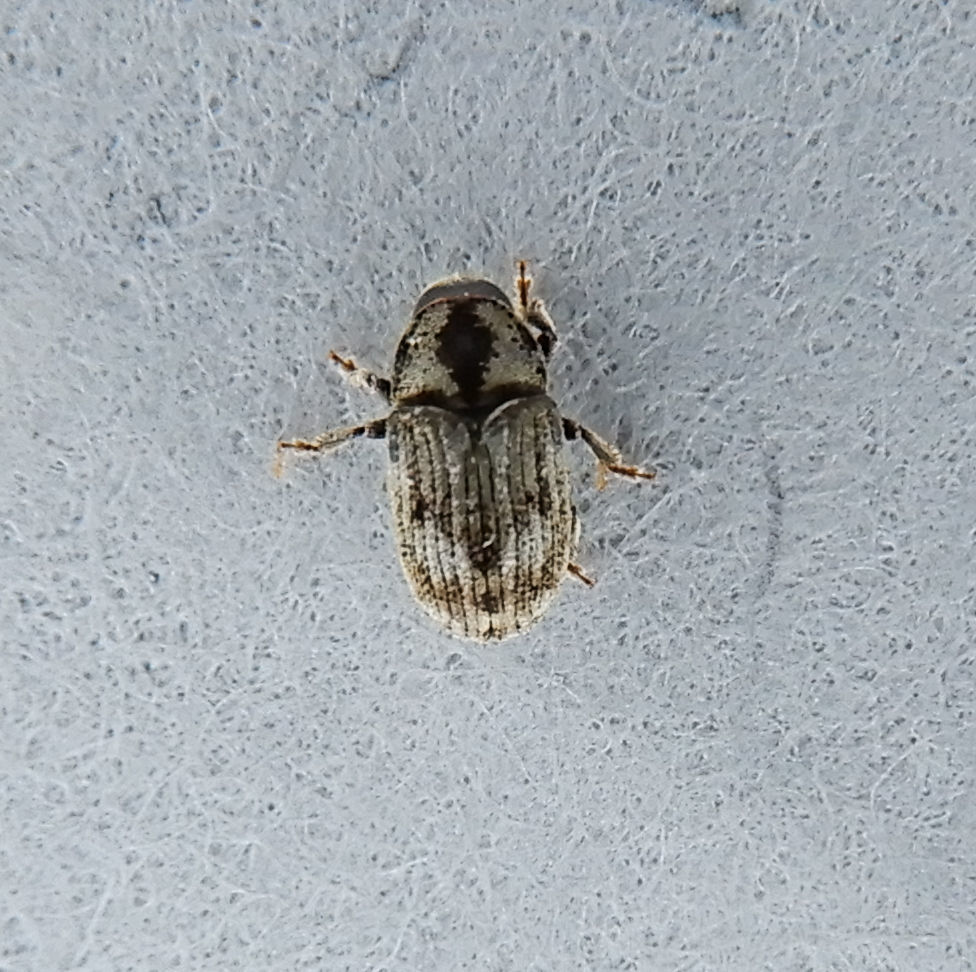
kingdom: Animalia
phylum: Arthropoda
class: Insecta
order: Coleoptera
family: Curculionidae
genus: Hylesinus
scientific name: Hylesinus aculeatus
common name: Easter-ash bark beetle
